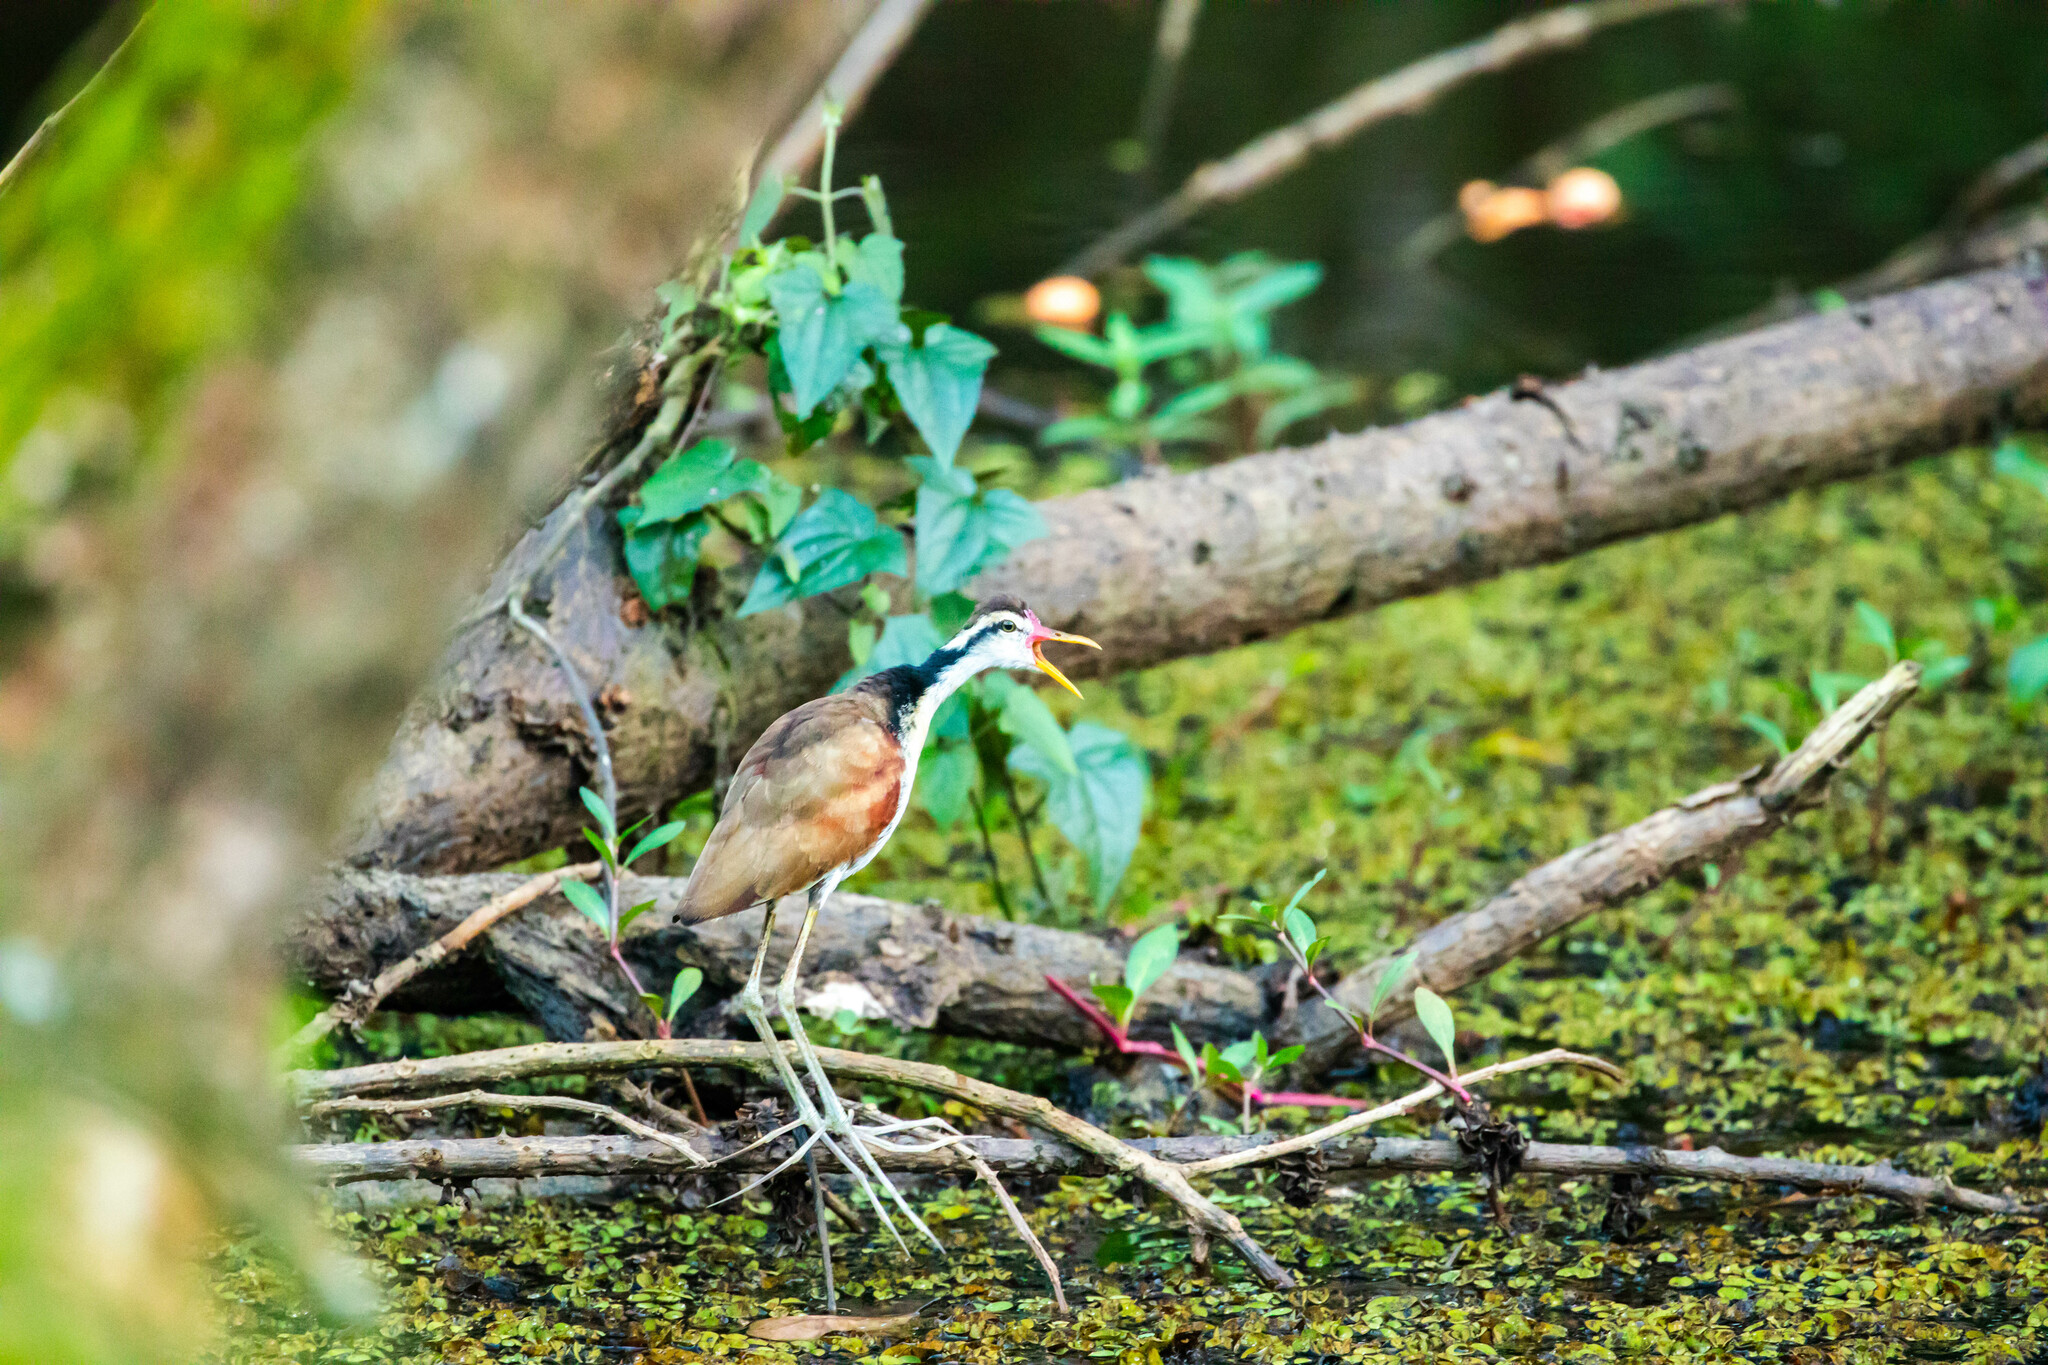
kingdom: Animalia
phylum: Chordata
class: Aves
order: Charadriiformes
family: Jacanidae
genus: Jacana
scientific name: Jacana jacana
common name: Wattled jacana
